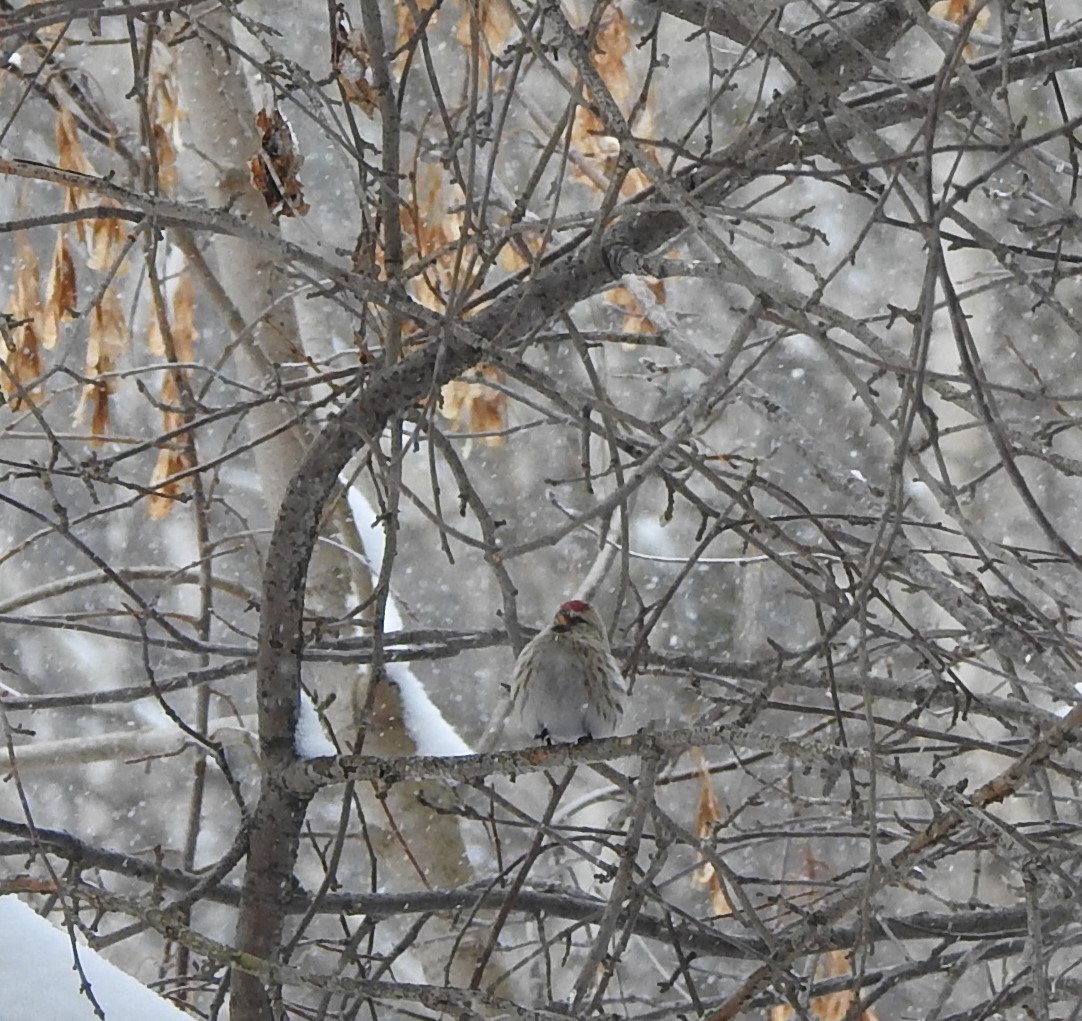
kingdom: Animalia
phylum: Chordata
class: Aves
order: Passeriformes
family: Fringillidae
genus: Acanthis
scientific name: Acanthis flammea
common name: Common redpoll
